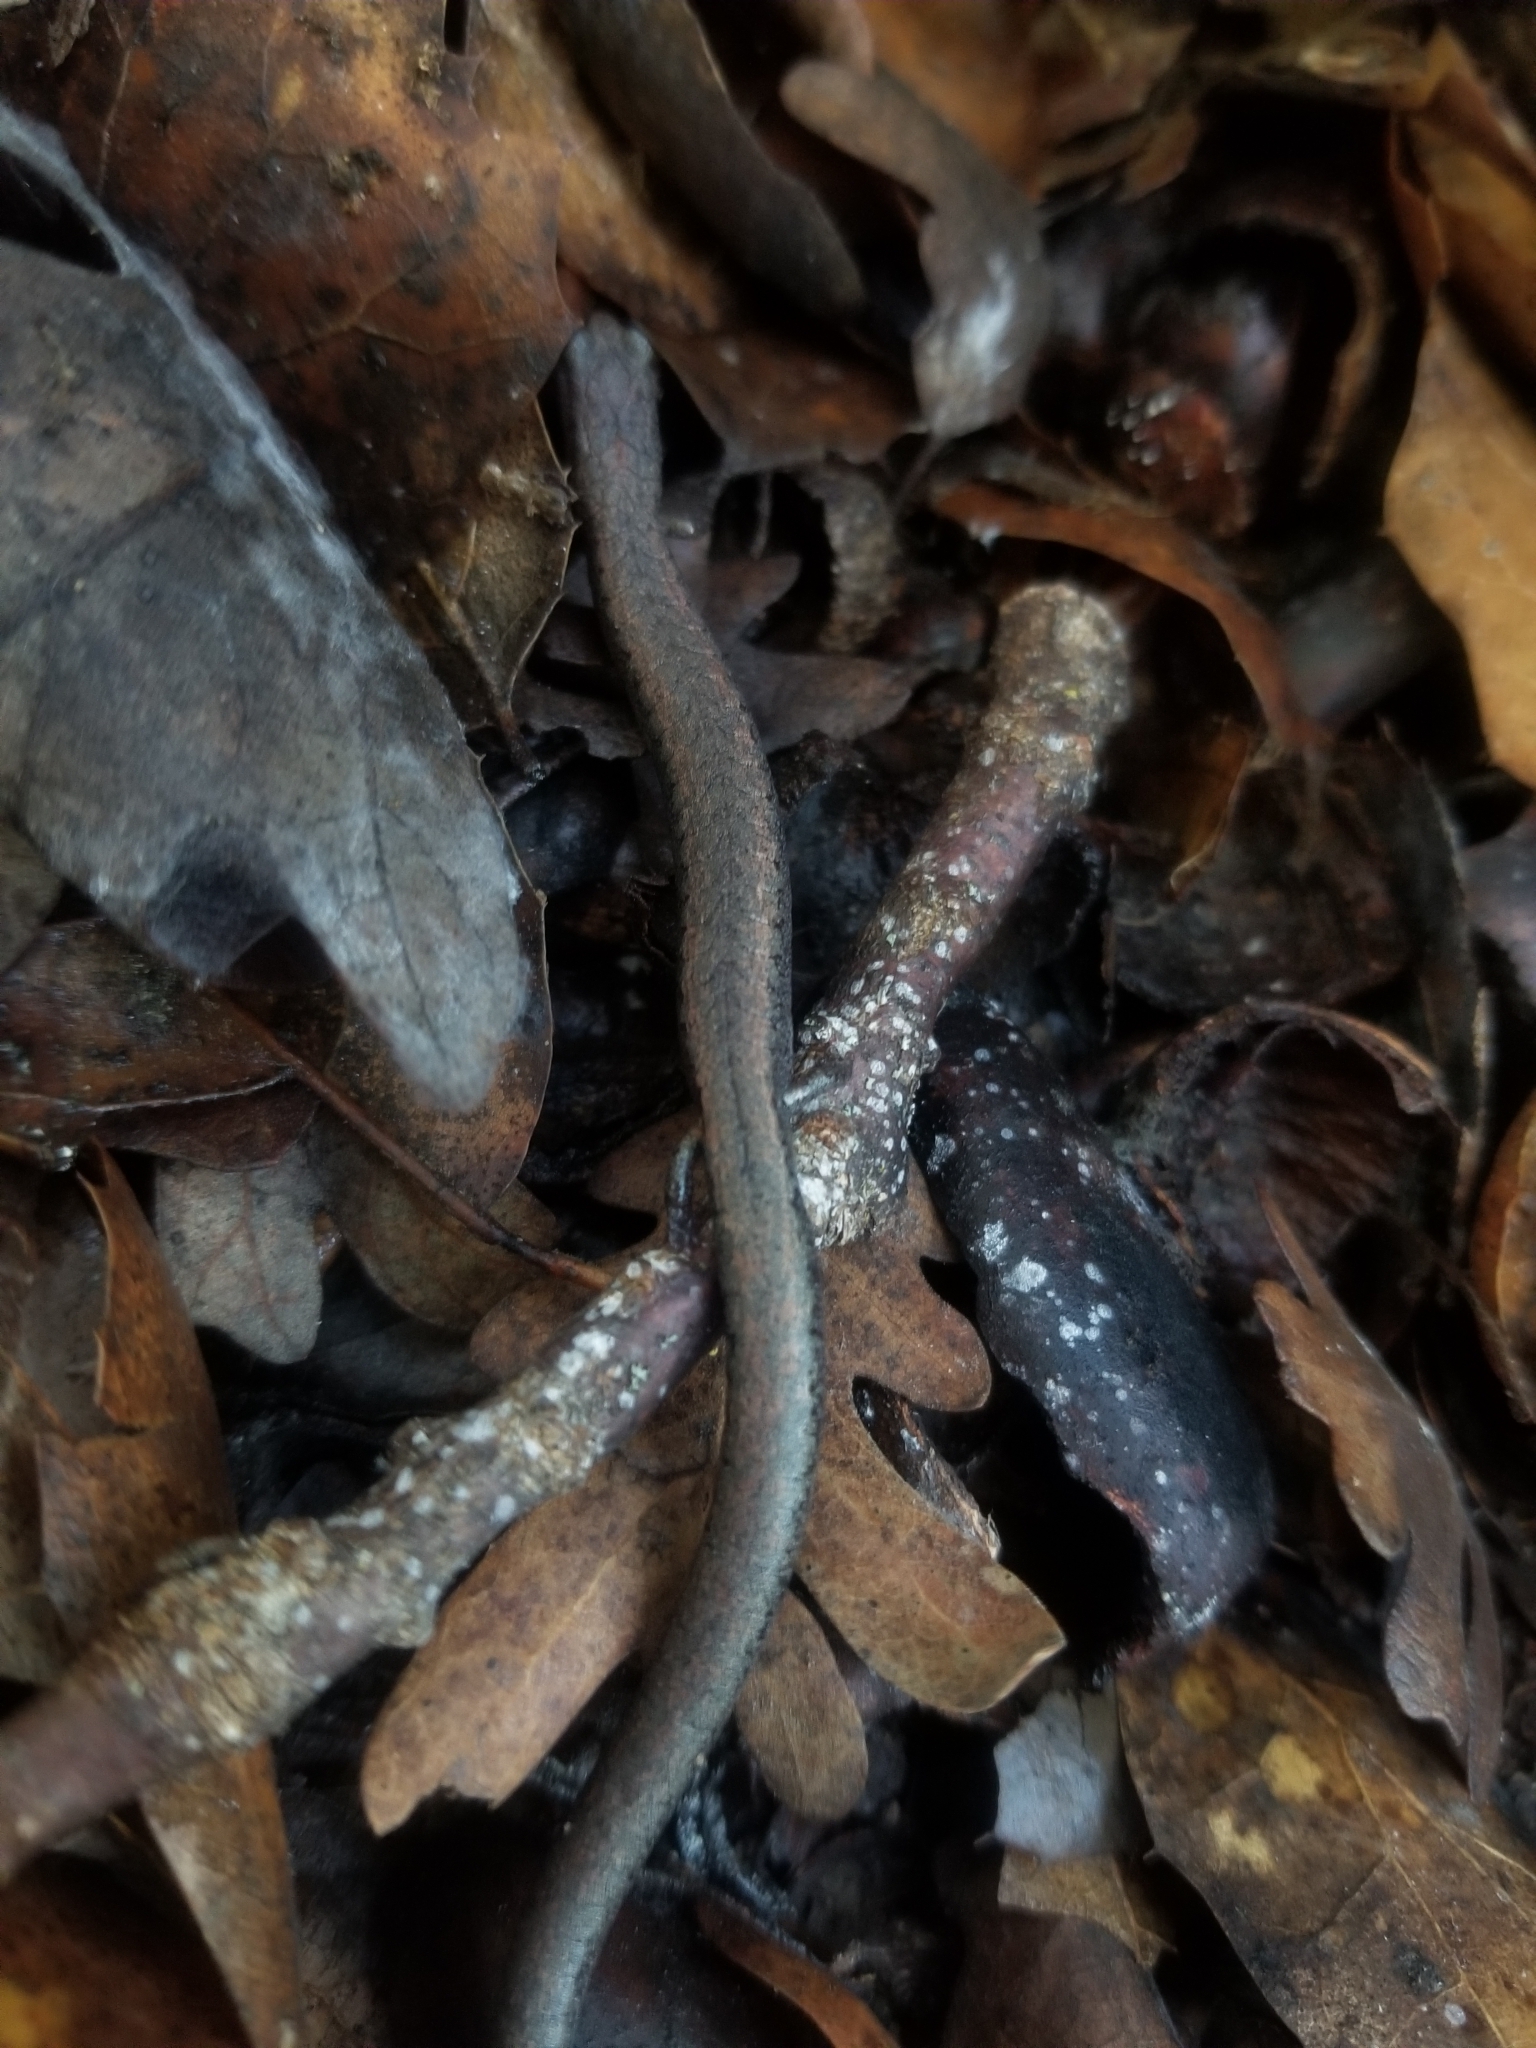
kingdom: Animalia
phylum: Chordata
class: Amphibia
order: Caudata
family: Plethodontidae
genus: Batrachoseps
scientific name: Batrachoseps gavilanensis
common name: Gabilan mountains slender salamander
